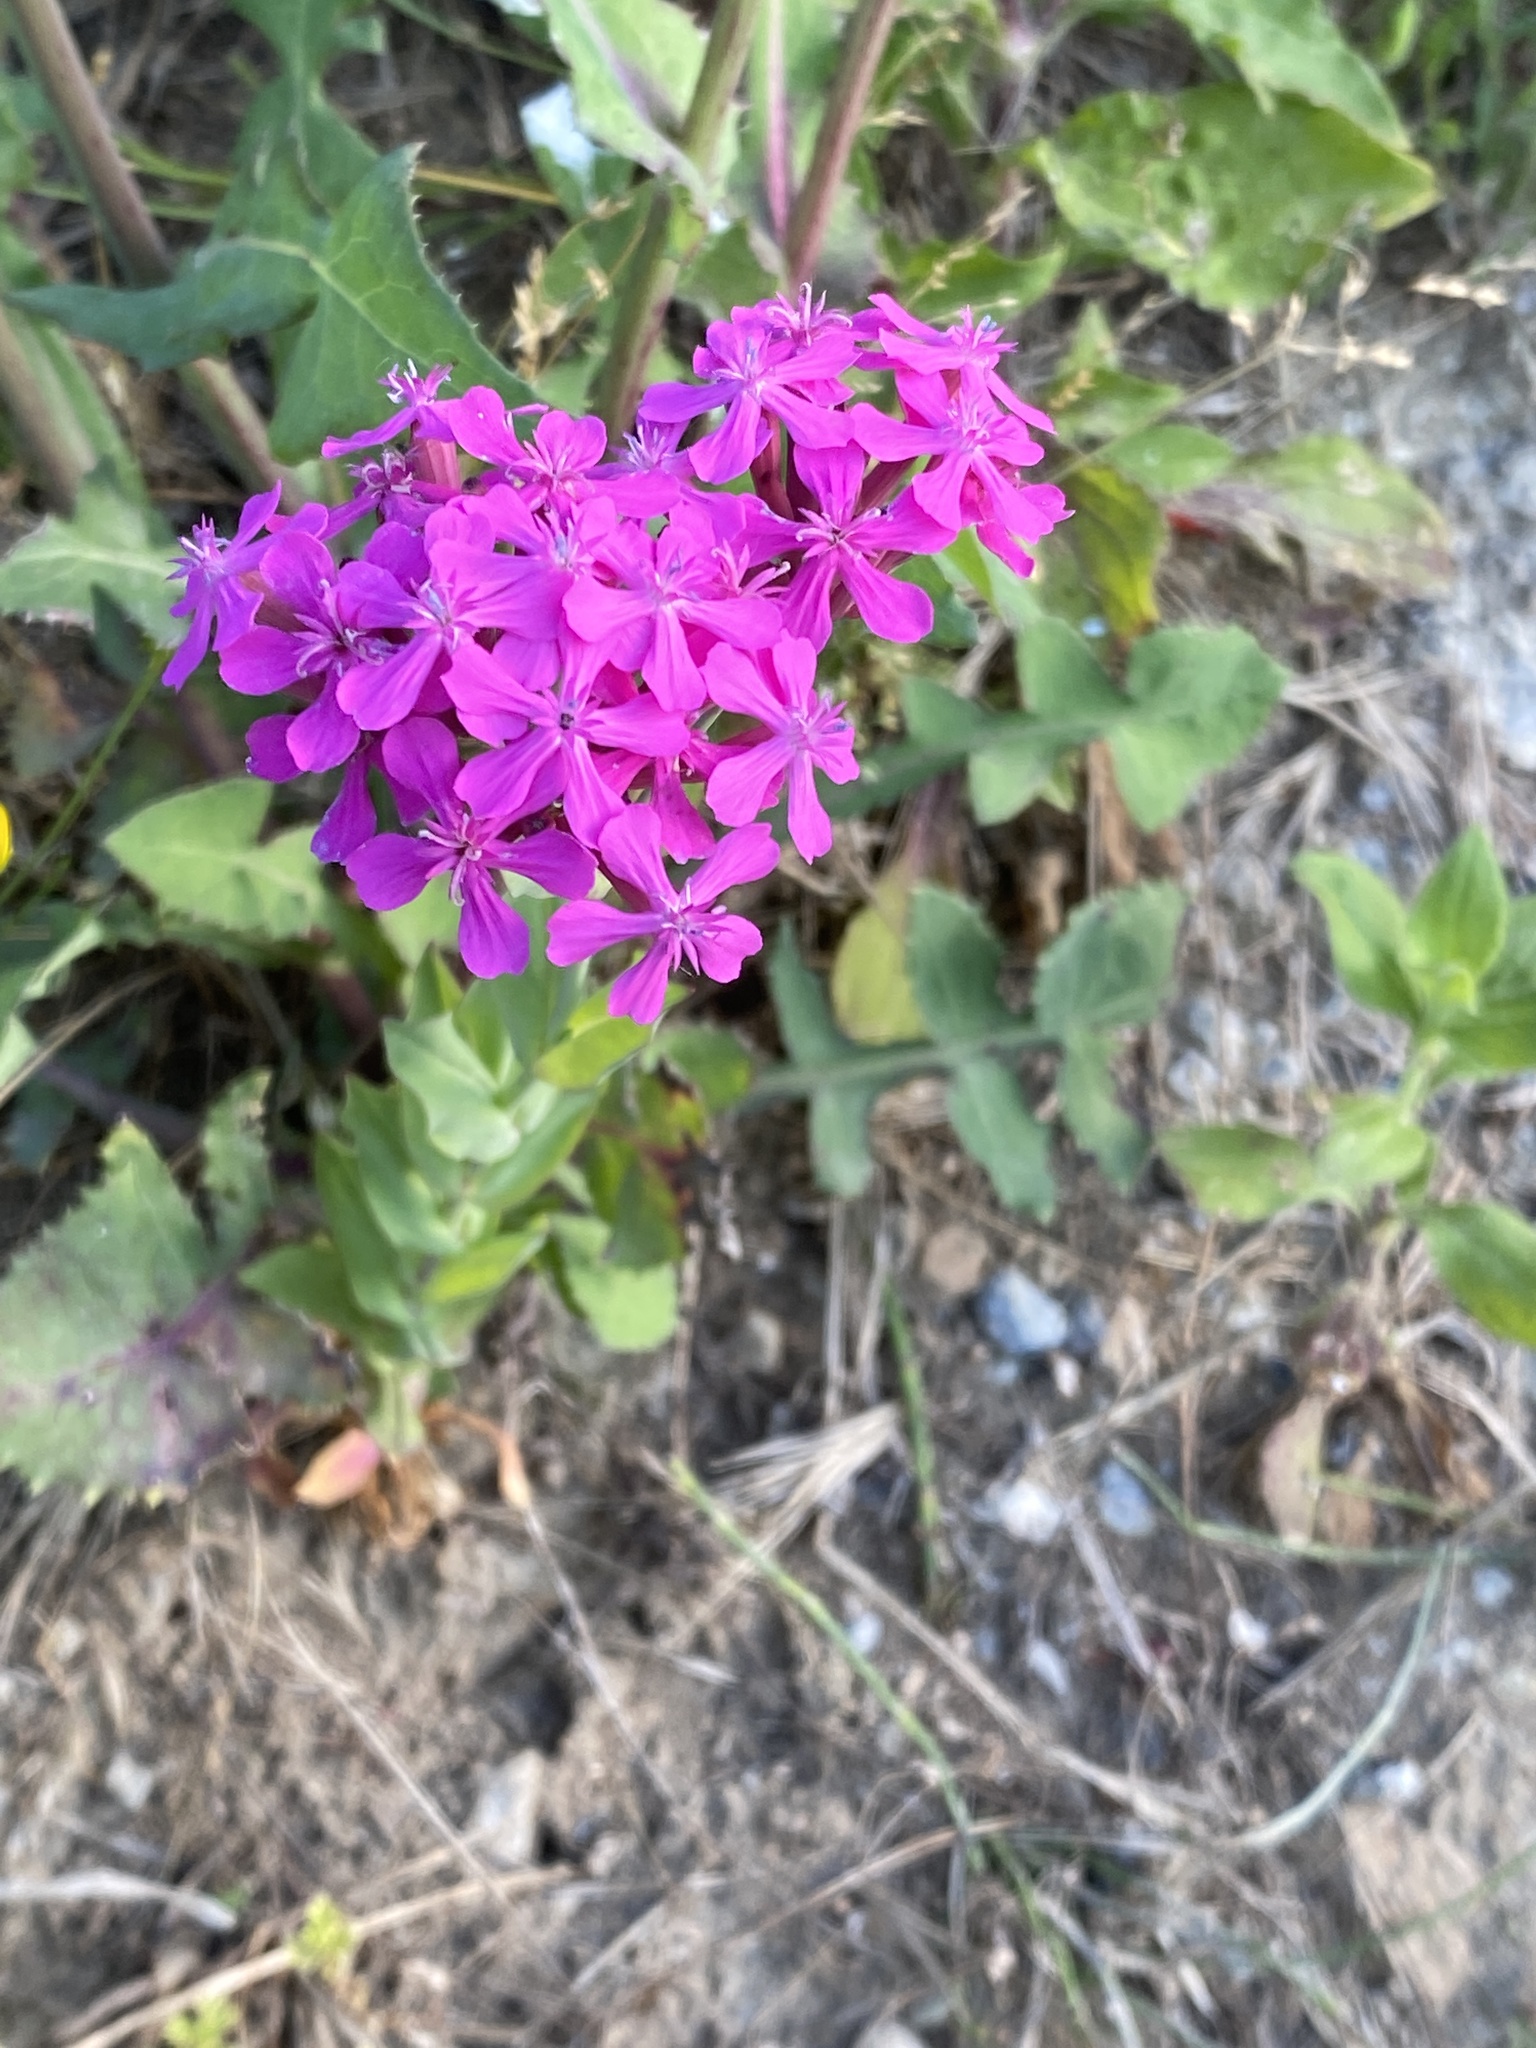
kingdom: Plantae
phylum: Tracheophyta
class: Magnoliopsida
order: Caryophyllales
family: Caryophyllaceae
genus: Atocion
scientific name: Atocion armeria
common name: Sweet william catchfly
